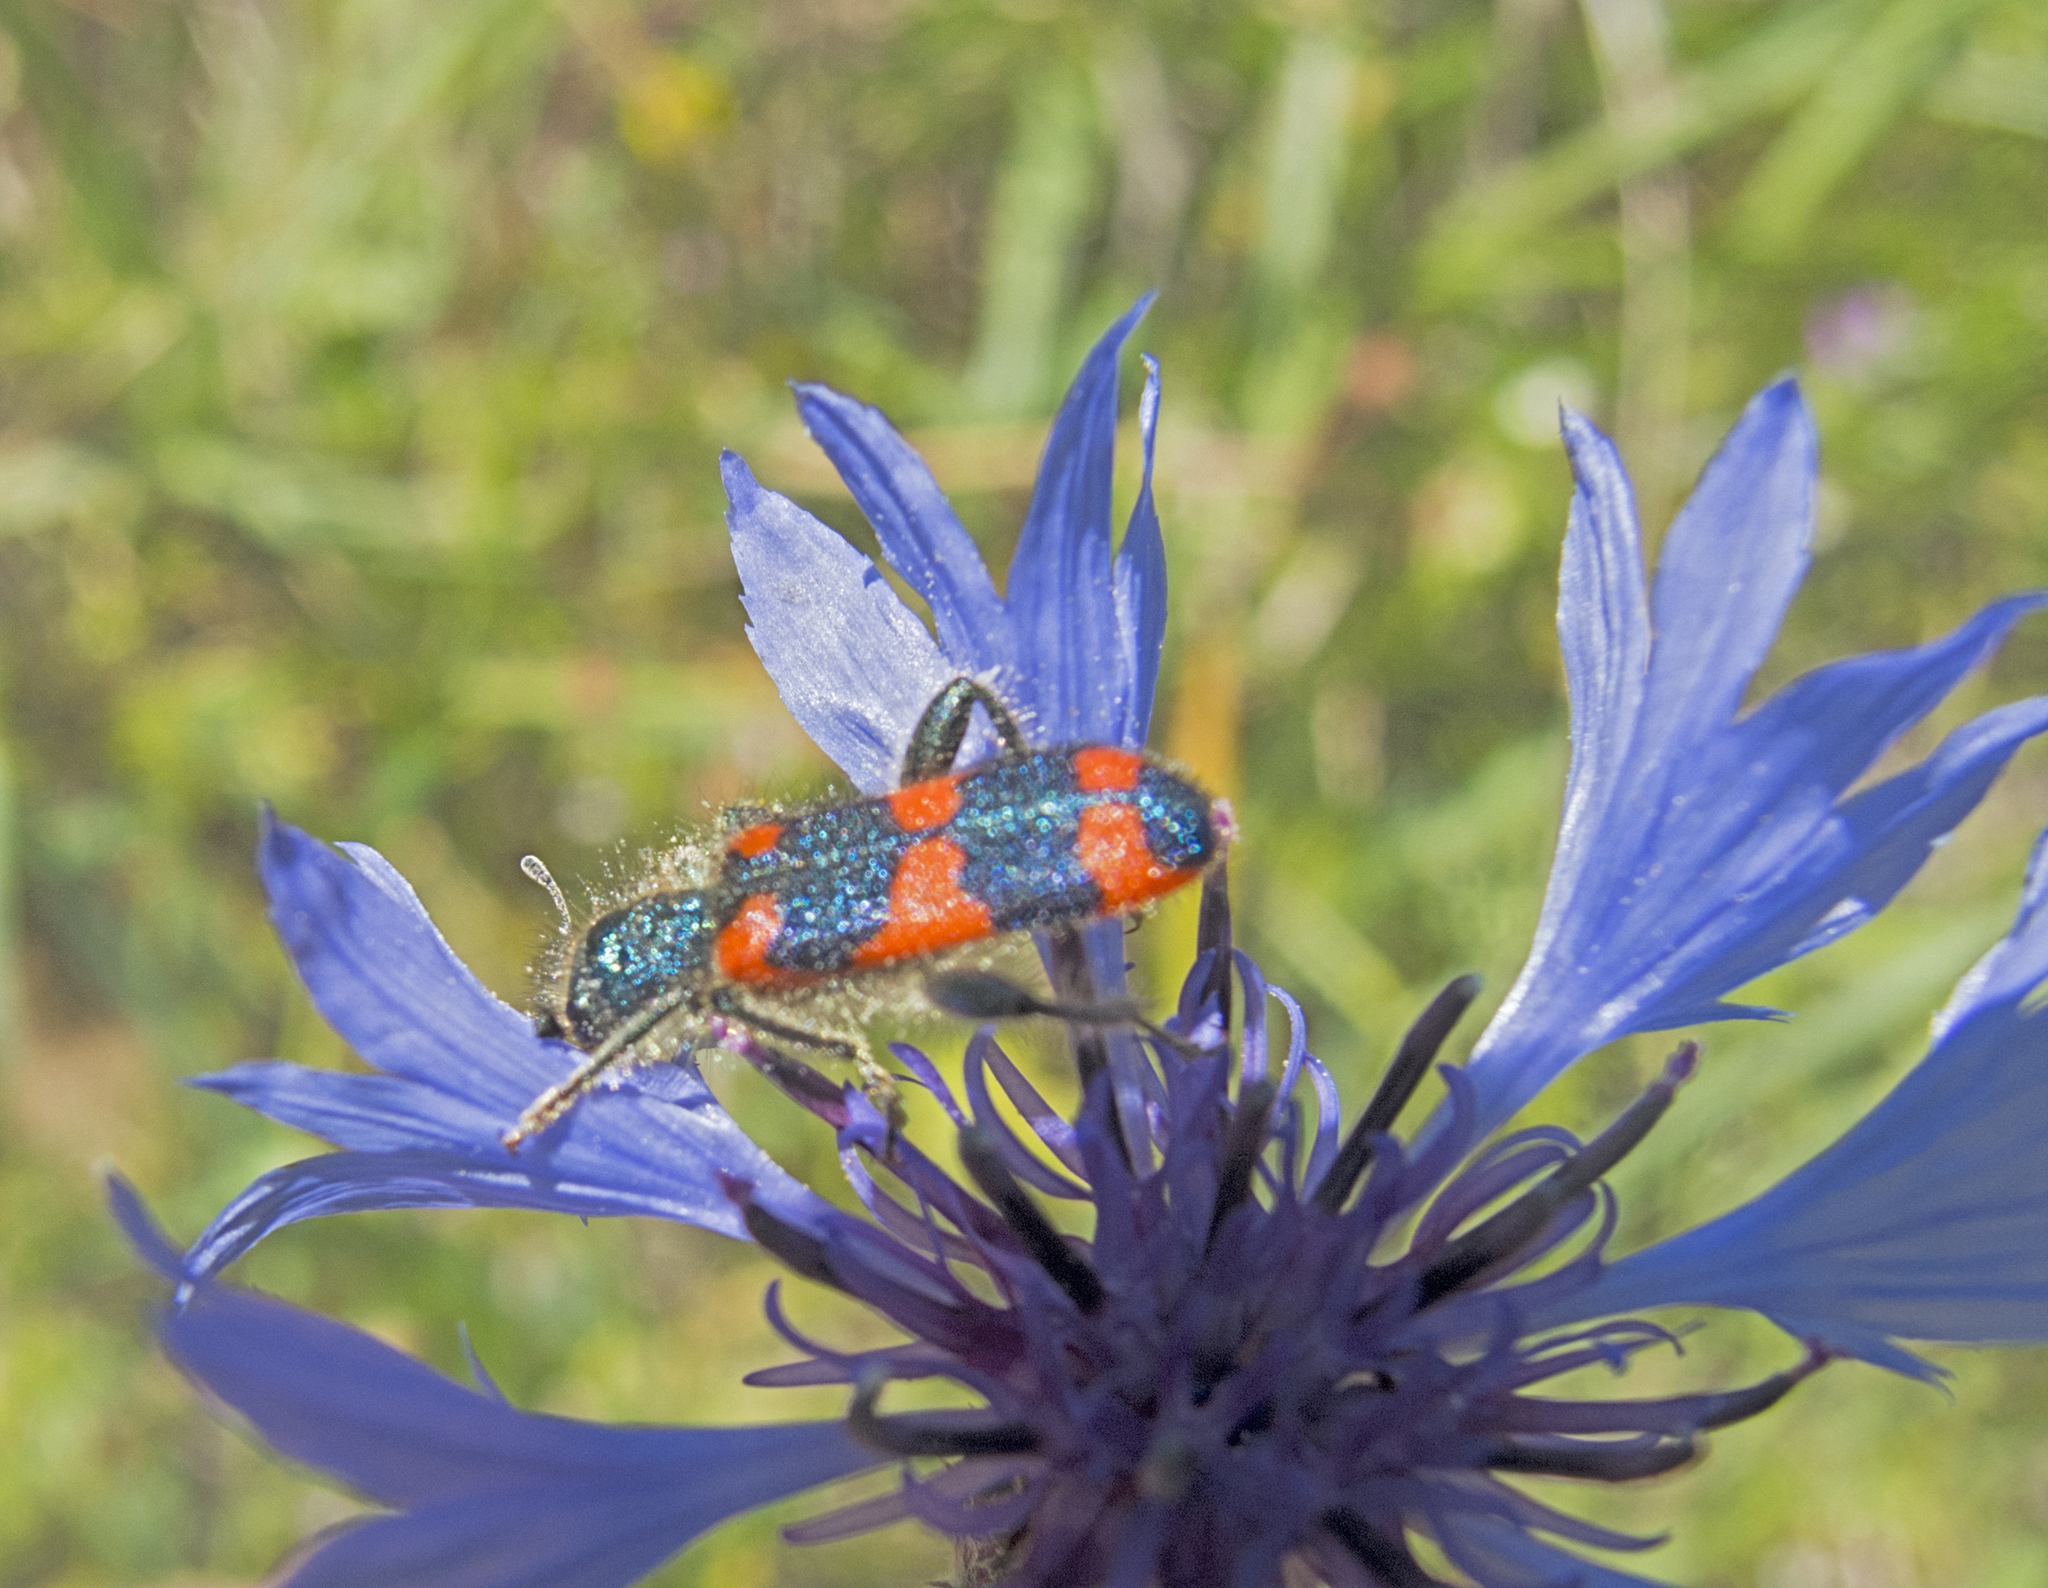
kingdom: Animalia
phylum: Arthropoda
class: Insecta
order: Coleoptera
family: Cleridae
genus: Trichodes
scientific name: Trichodes punctatus
